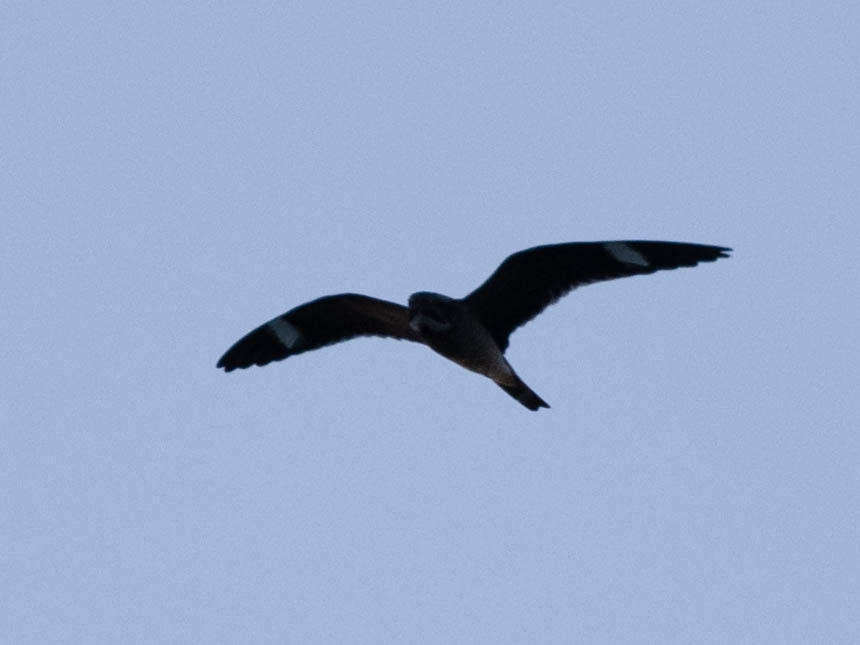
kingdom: Animalia
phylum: Chordata
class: Aves
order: Caprimulgiformes
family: Caprimulgidae
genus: Chordeiles
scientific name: Chordeiles minor
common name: Common nighthawk
